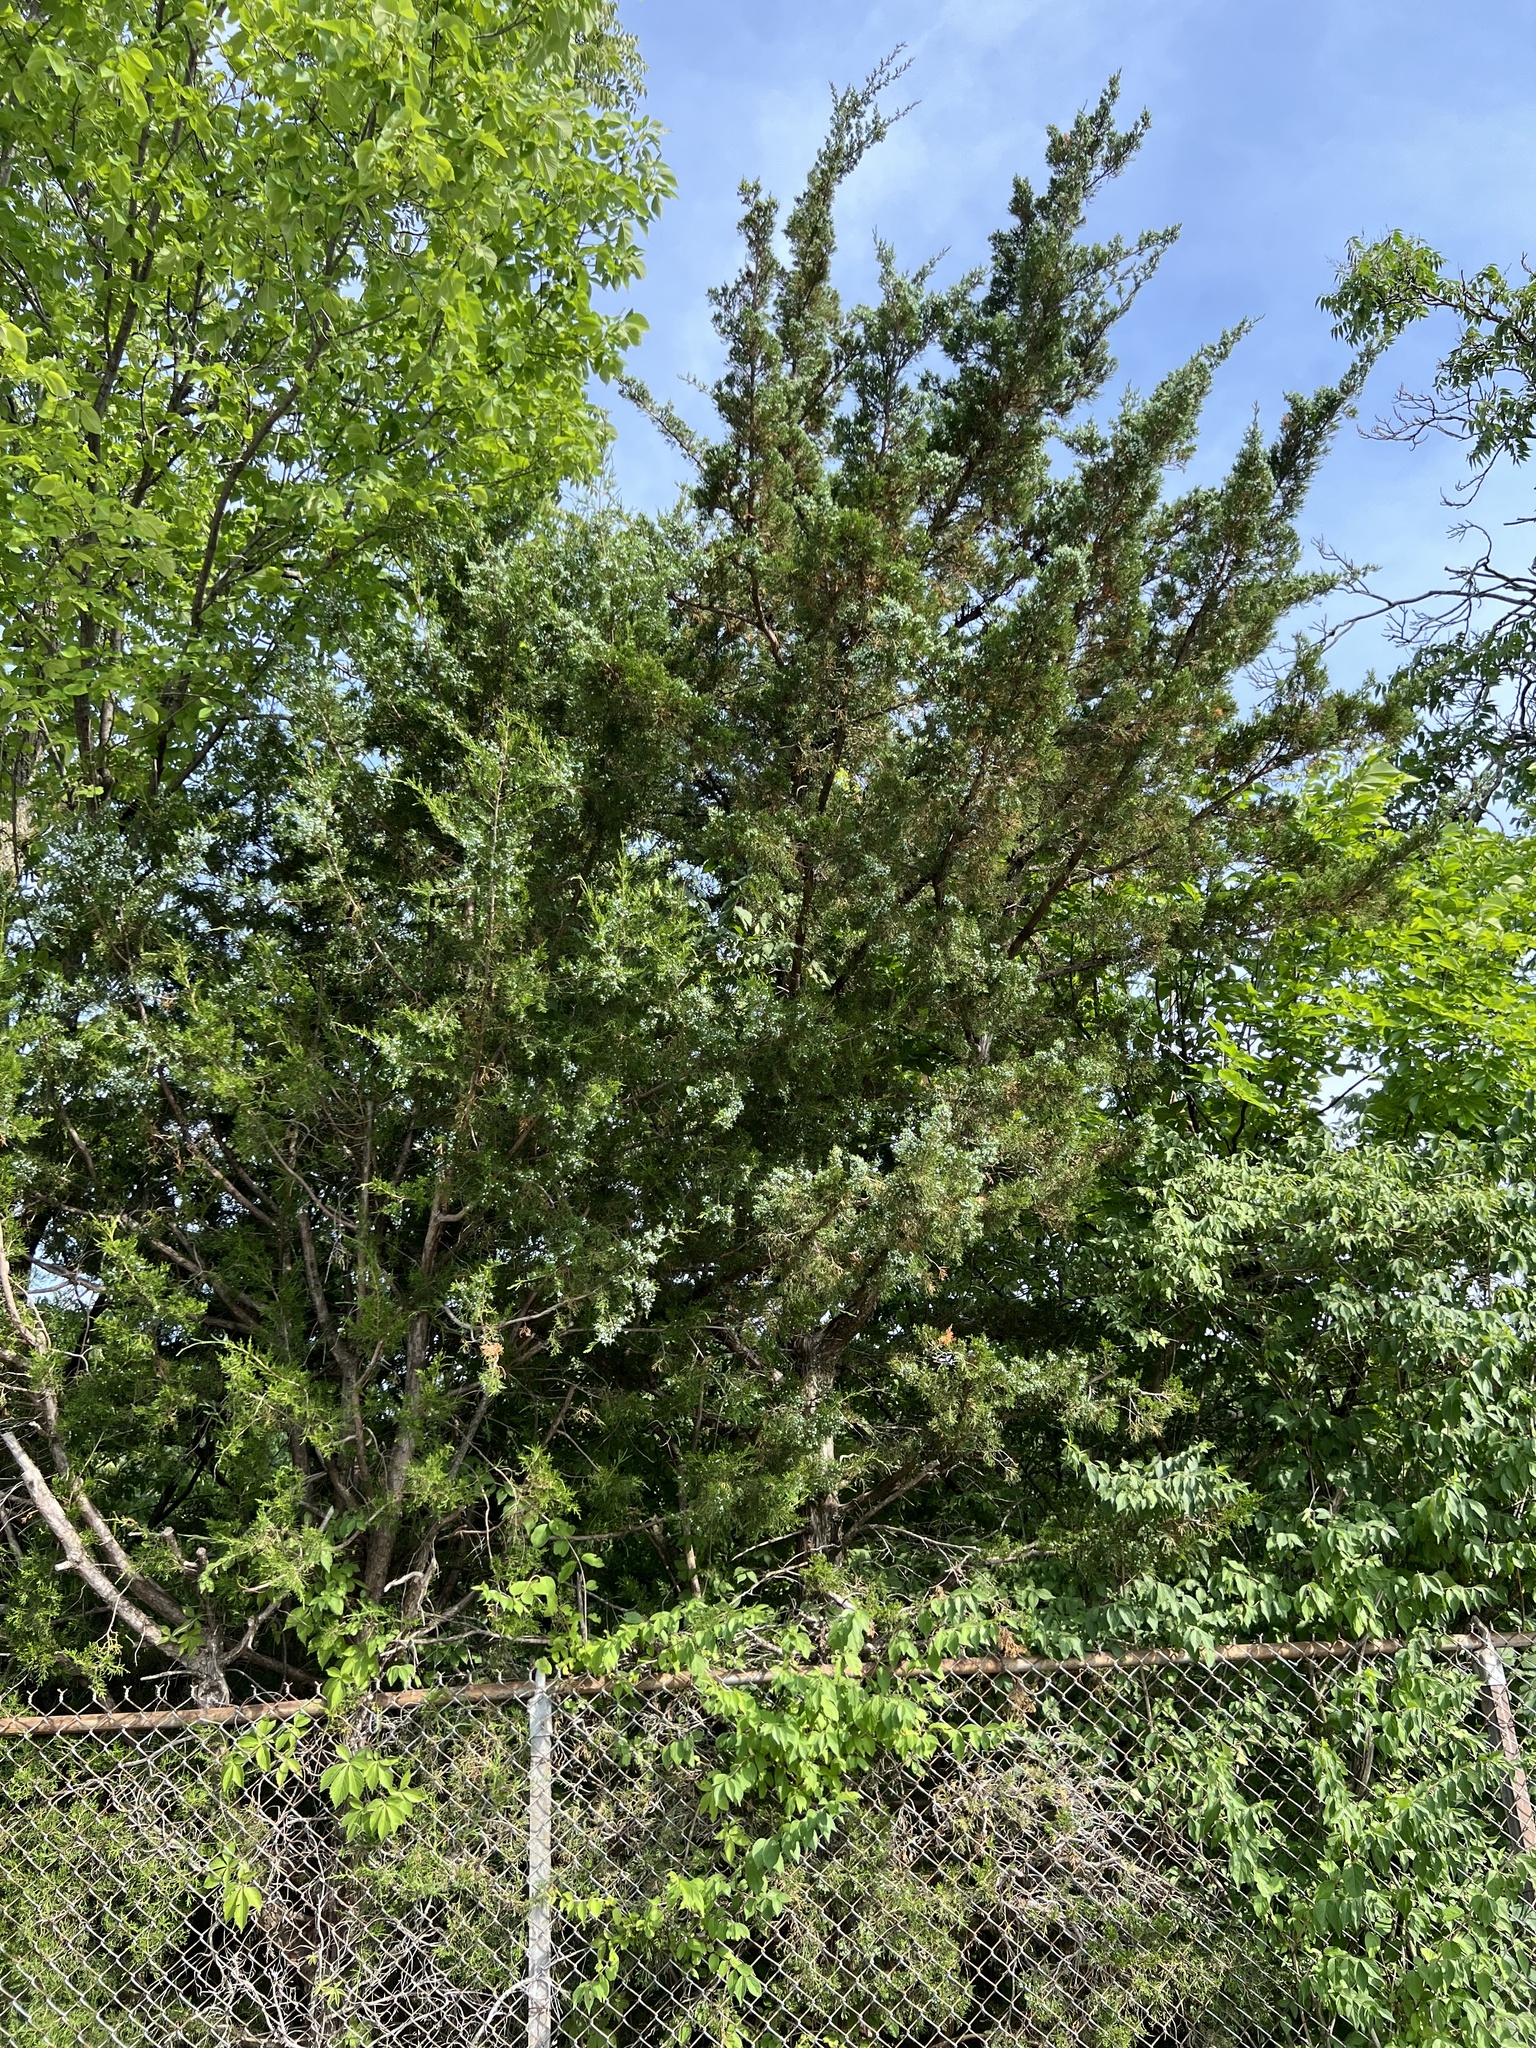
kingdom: Plantae
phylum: Tracheophyta
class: Pinopsida
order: Pinales
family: Cupressaceae
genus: Juniperus
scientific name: Juniperus virginiana
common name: Red juniper
